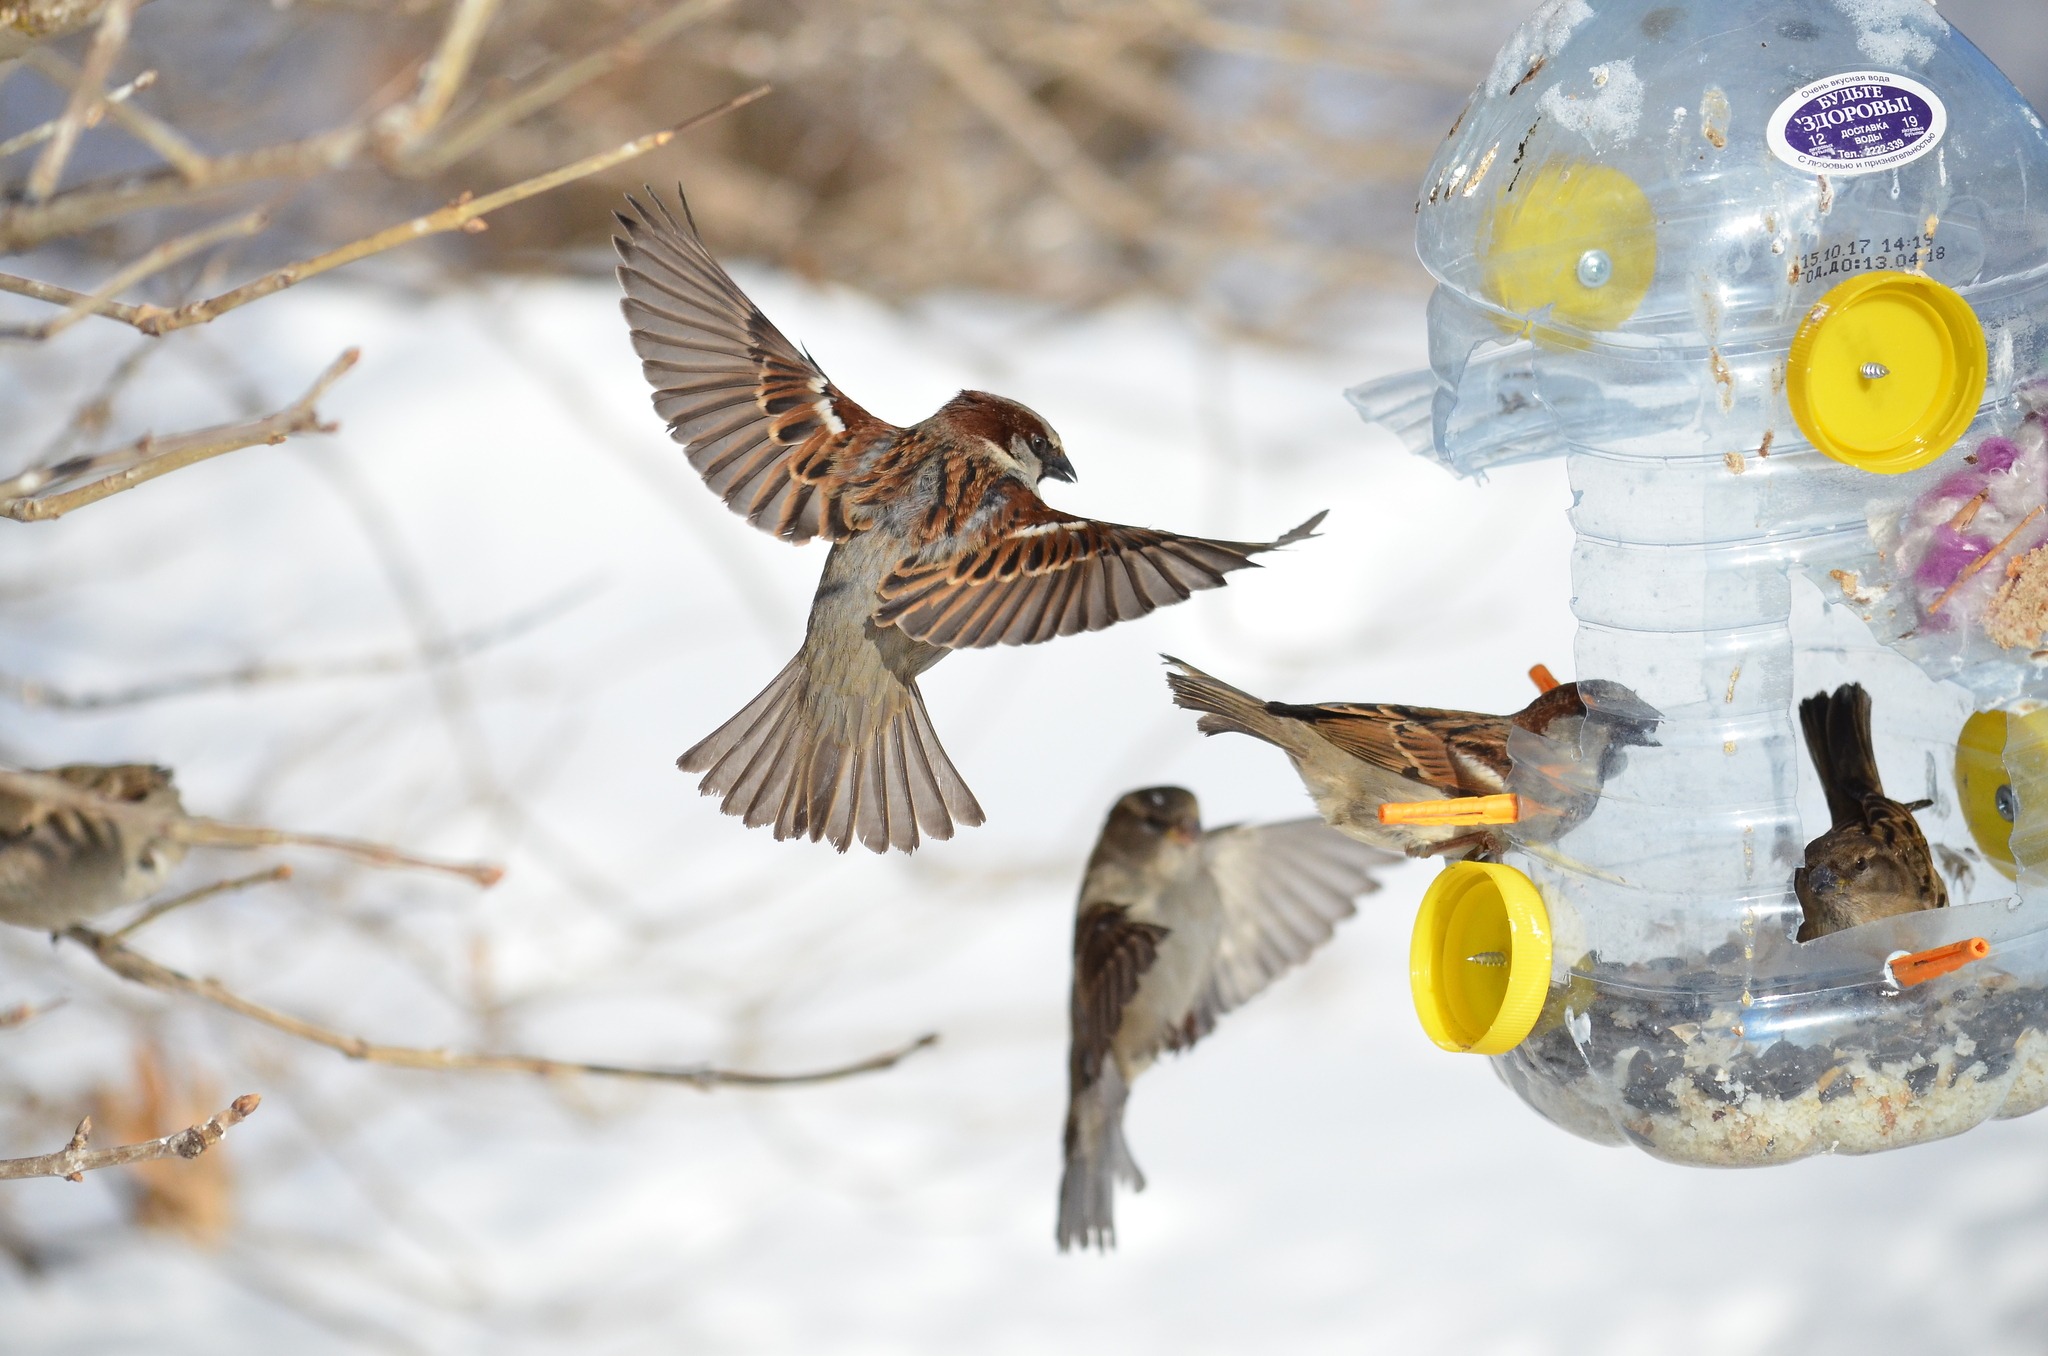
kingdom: Animalia
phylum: Chordata
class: Aves
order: Passeriformes
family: Passeridae
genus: Passer
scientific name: Passer domesticus
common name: House sparrow
